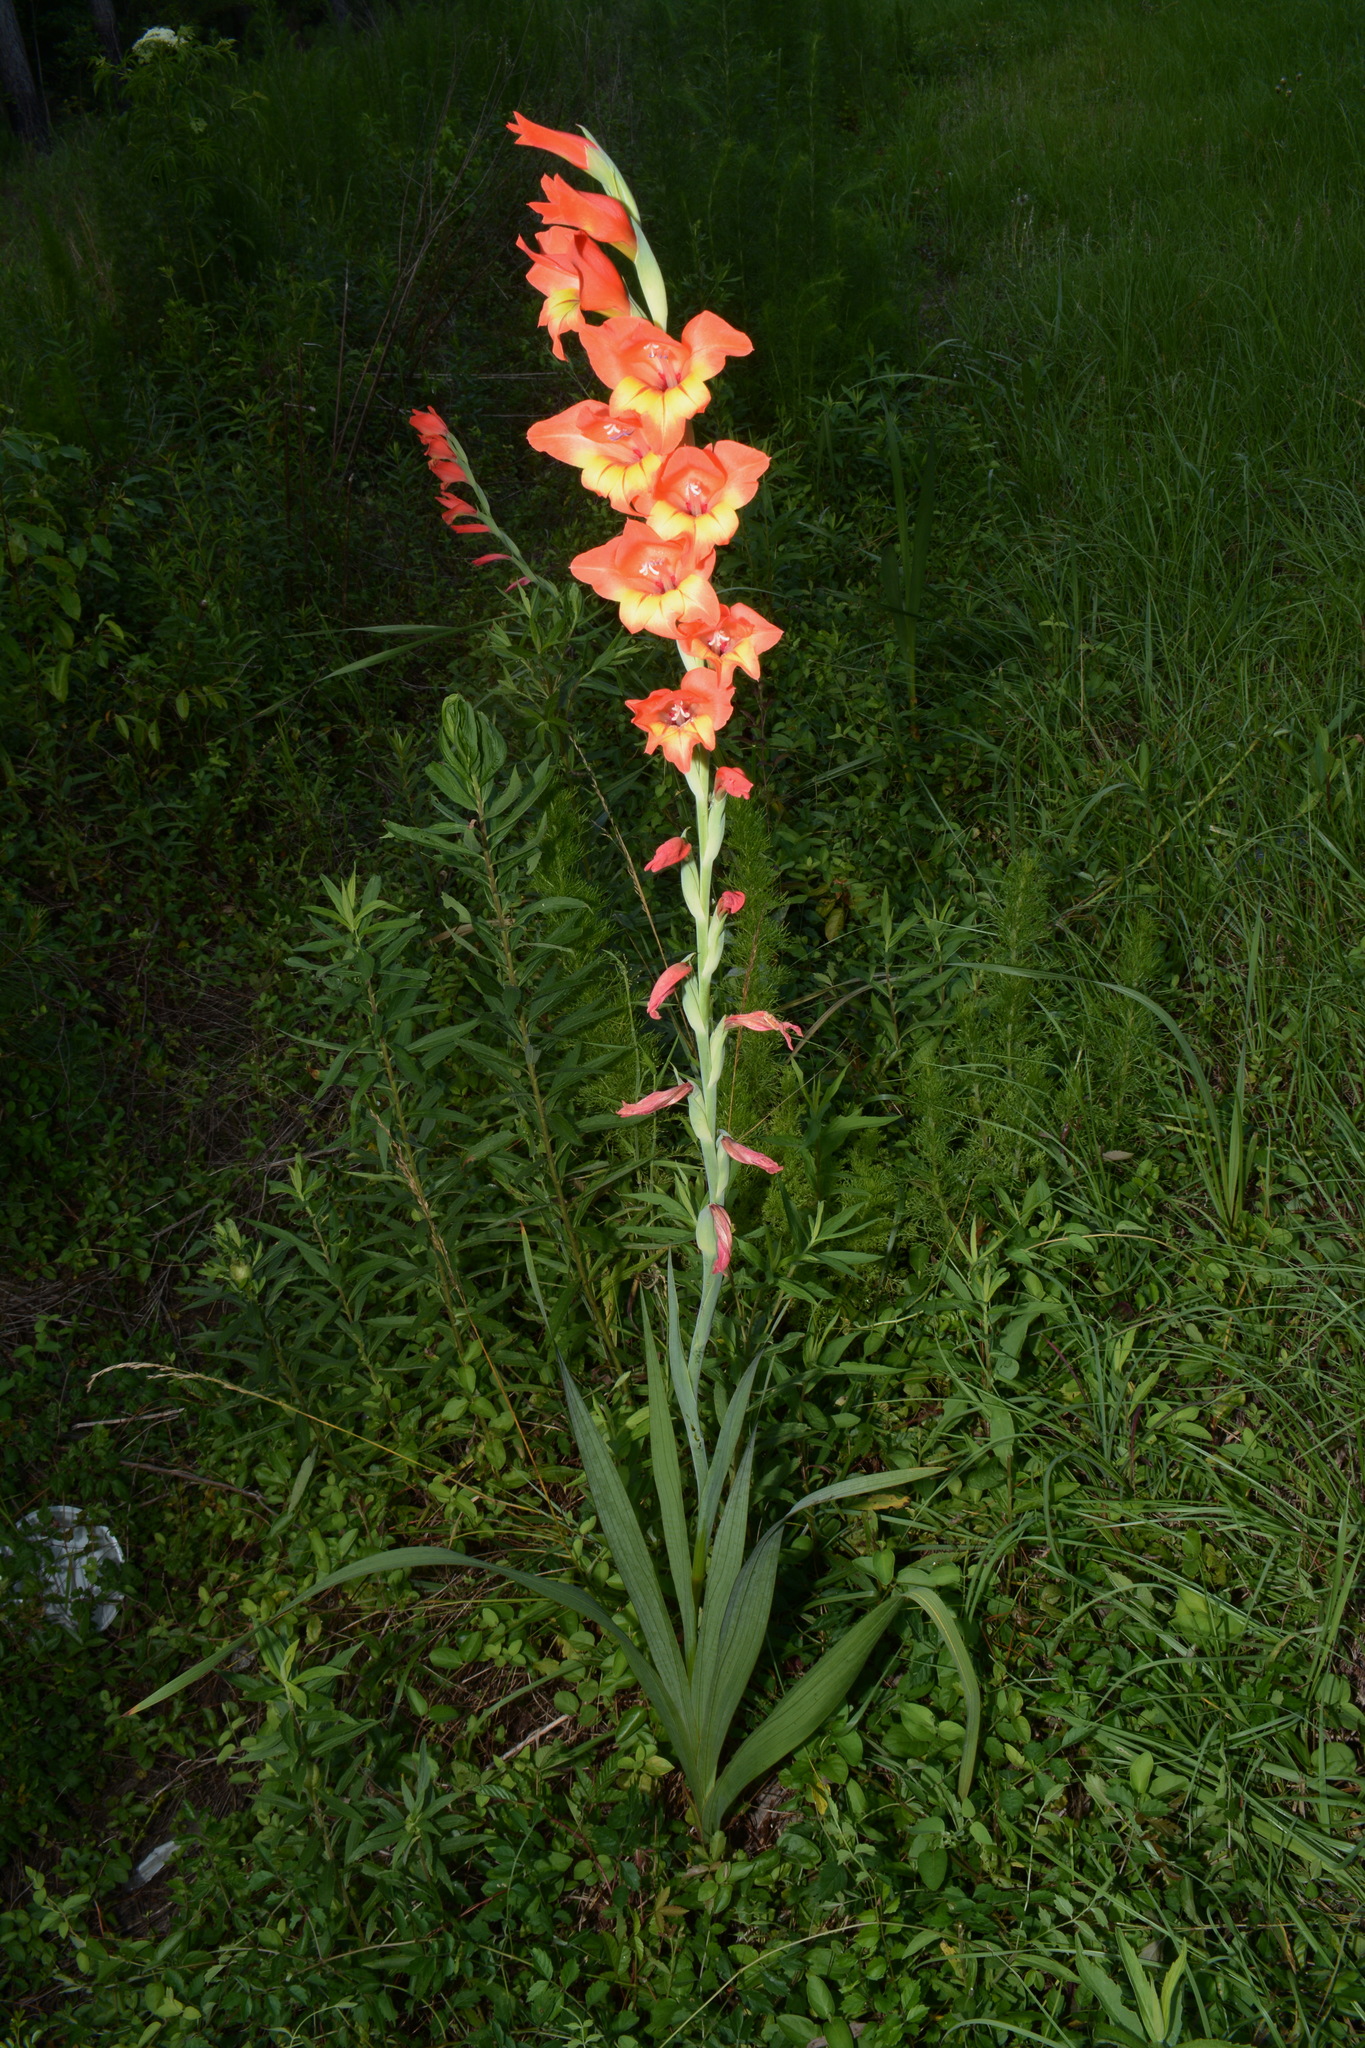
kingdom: Plantae
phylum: Tracheophyta
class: Liliopsida
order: Asparagales
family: Iridaceae
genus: Gladiolus
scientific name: Gladiolus hortulanus
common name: Large-flowered gladiolus
